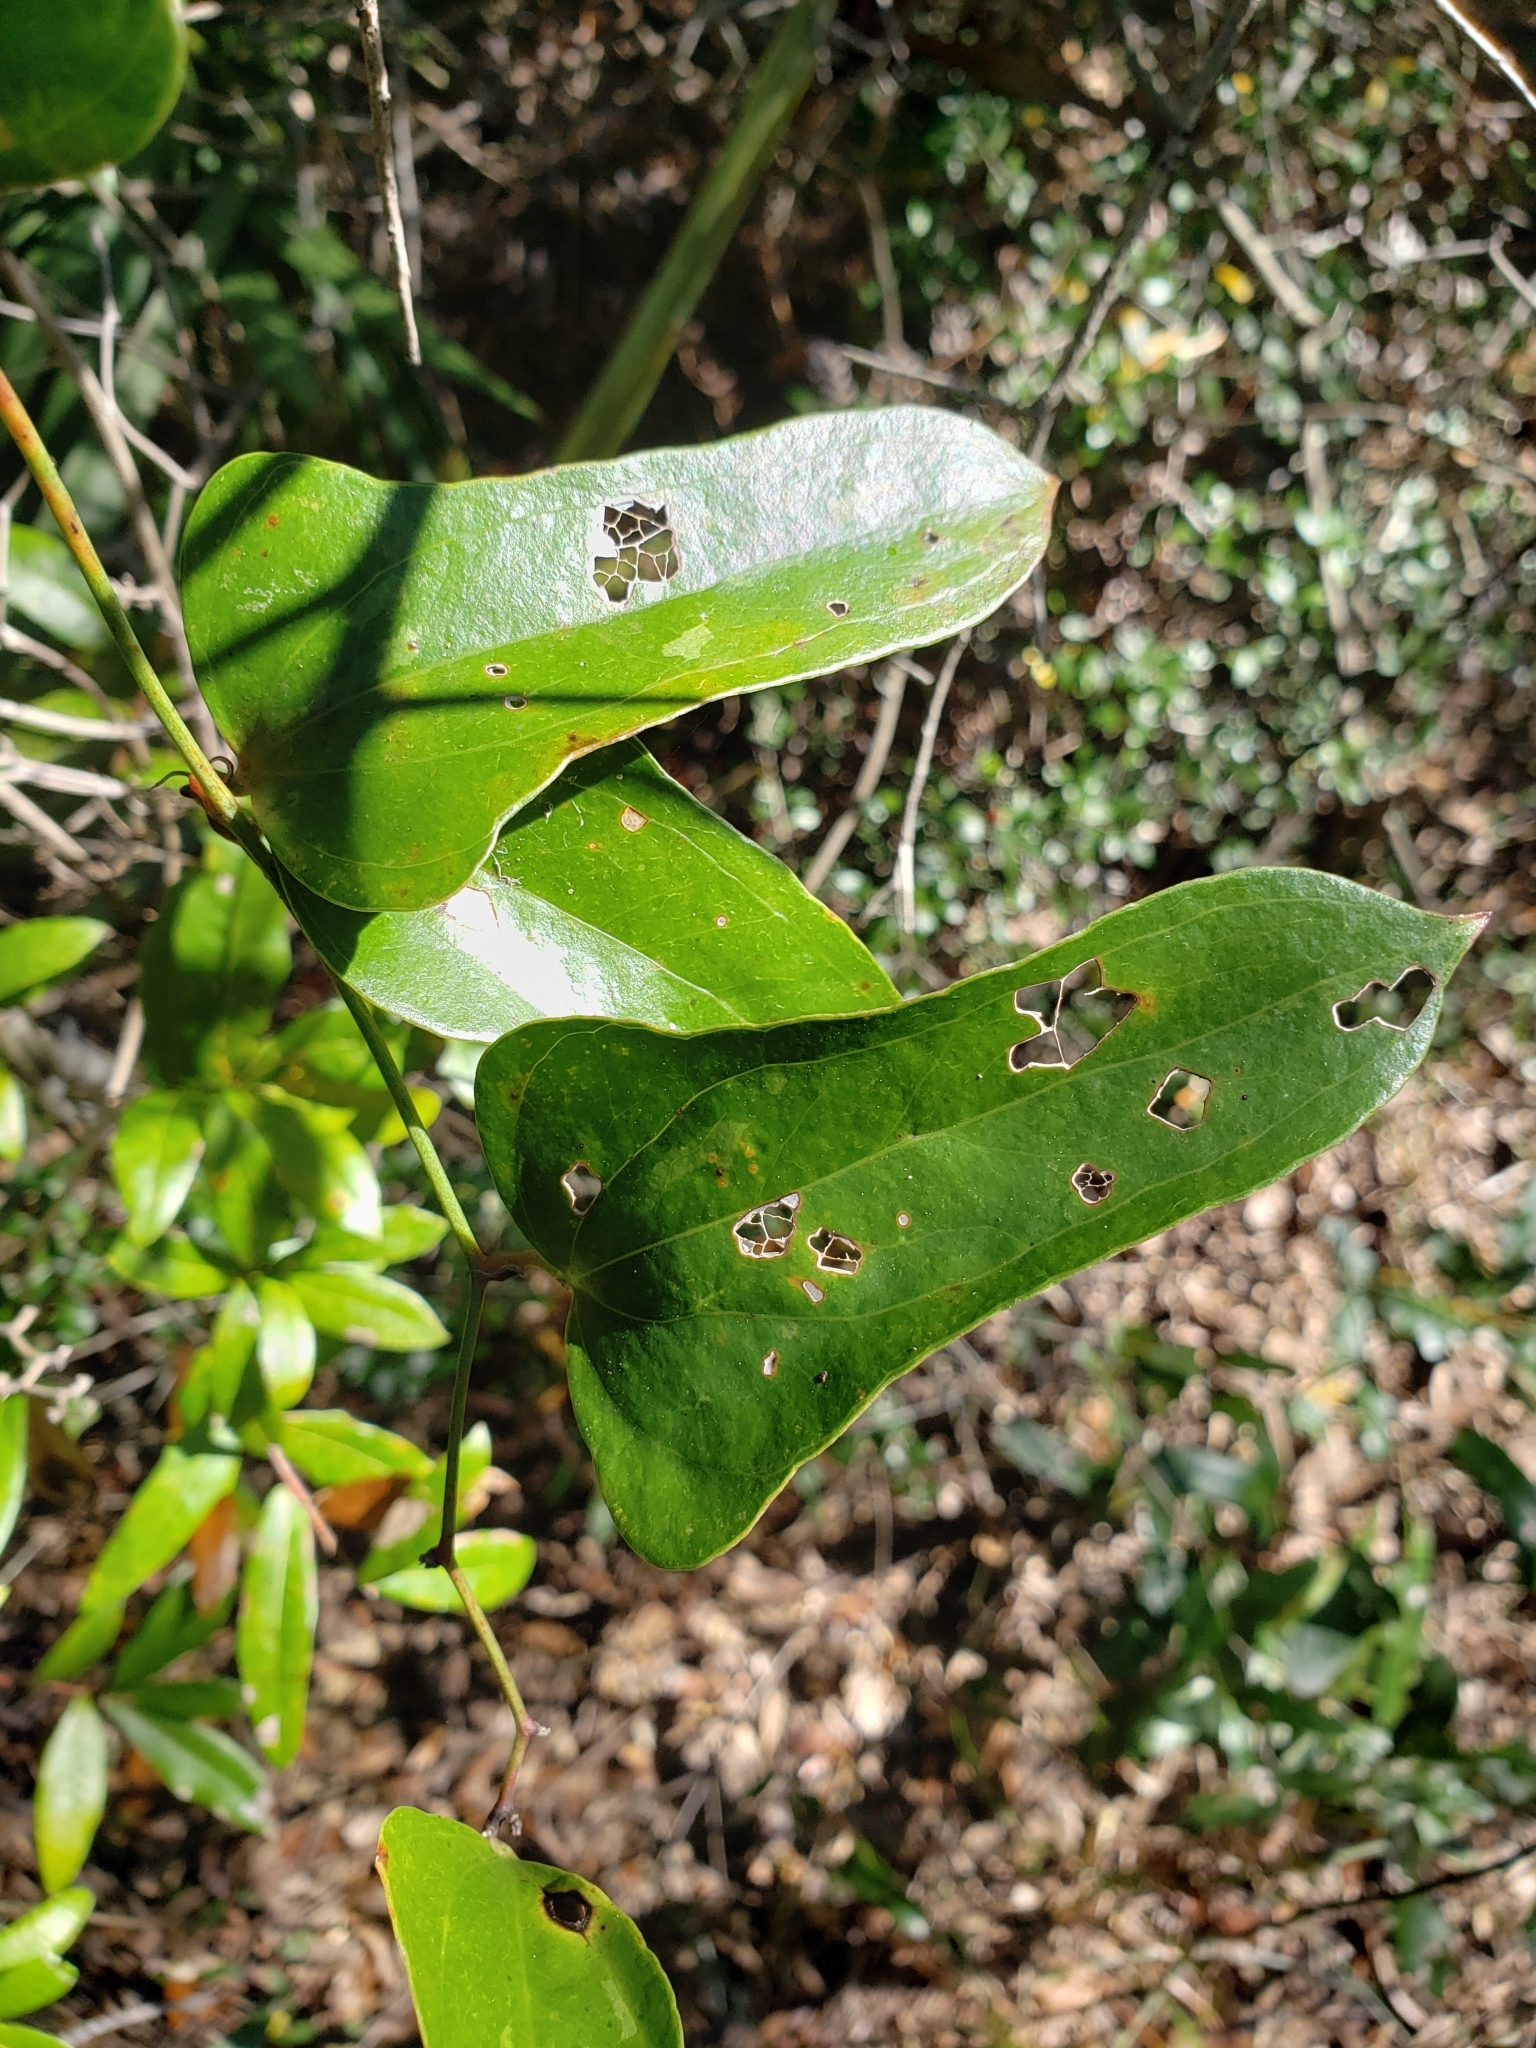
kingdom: Plantae
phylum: Tracheophyta
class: Liliopsida
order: Liliales
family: Smilacaceae
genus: Smilax
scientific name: Smilax auriculata
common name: Wild bamboo
